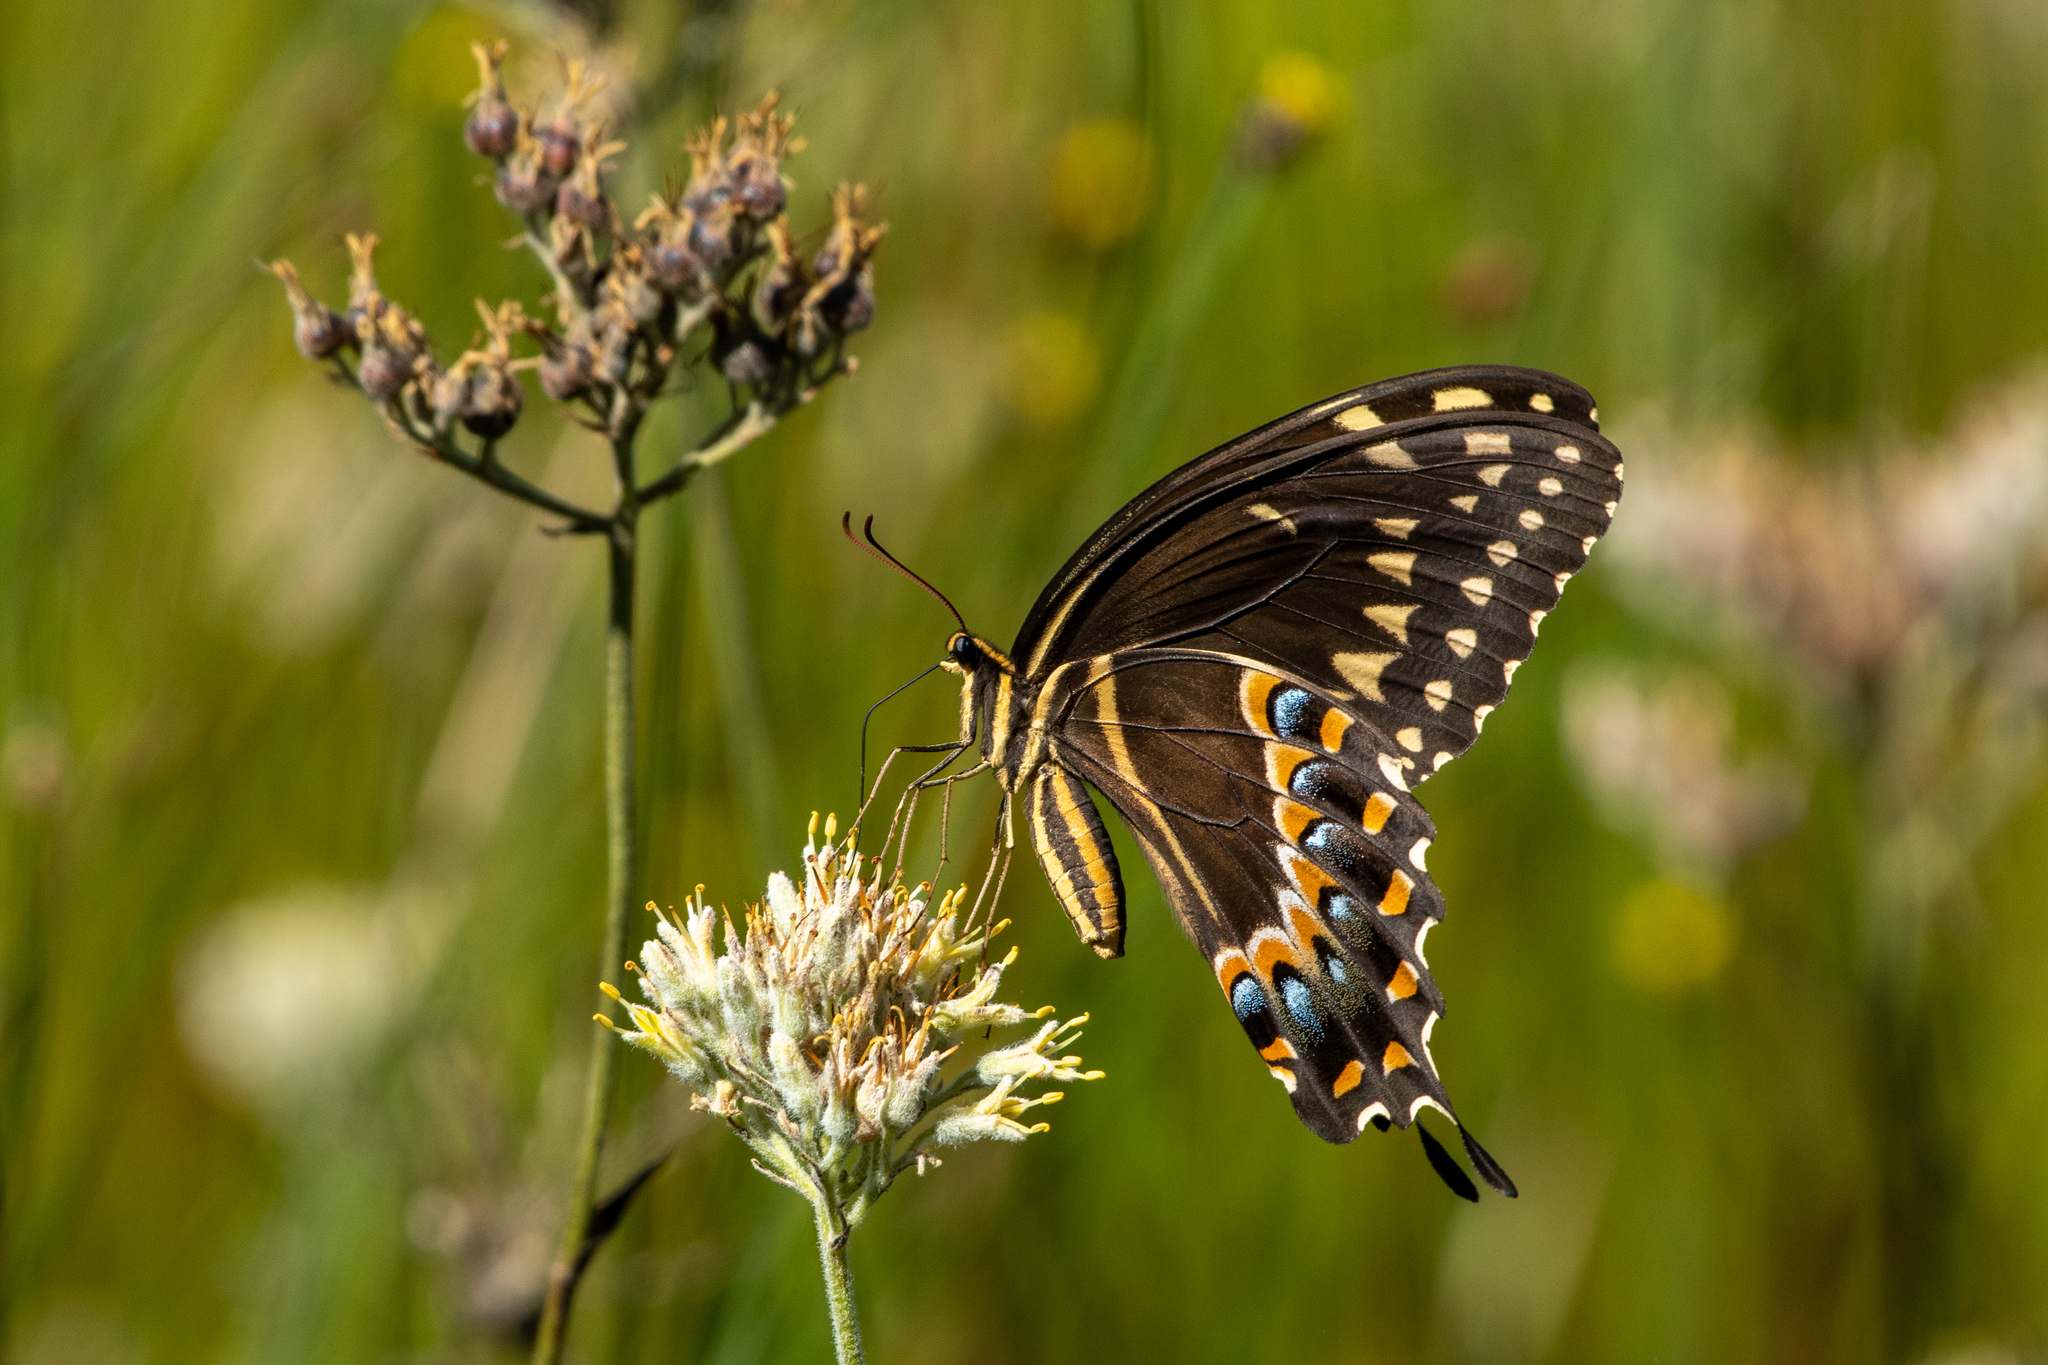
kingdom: Animalia
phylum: Arthropoda
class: Insecta
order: Lepidoptera
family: Papilionidae
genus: Papilio
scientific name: Papilio palamedes
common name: Palamedes swallowtail
